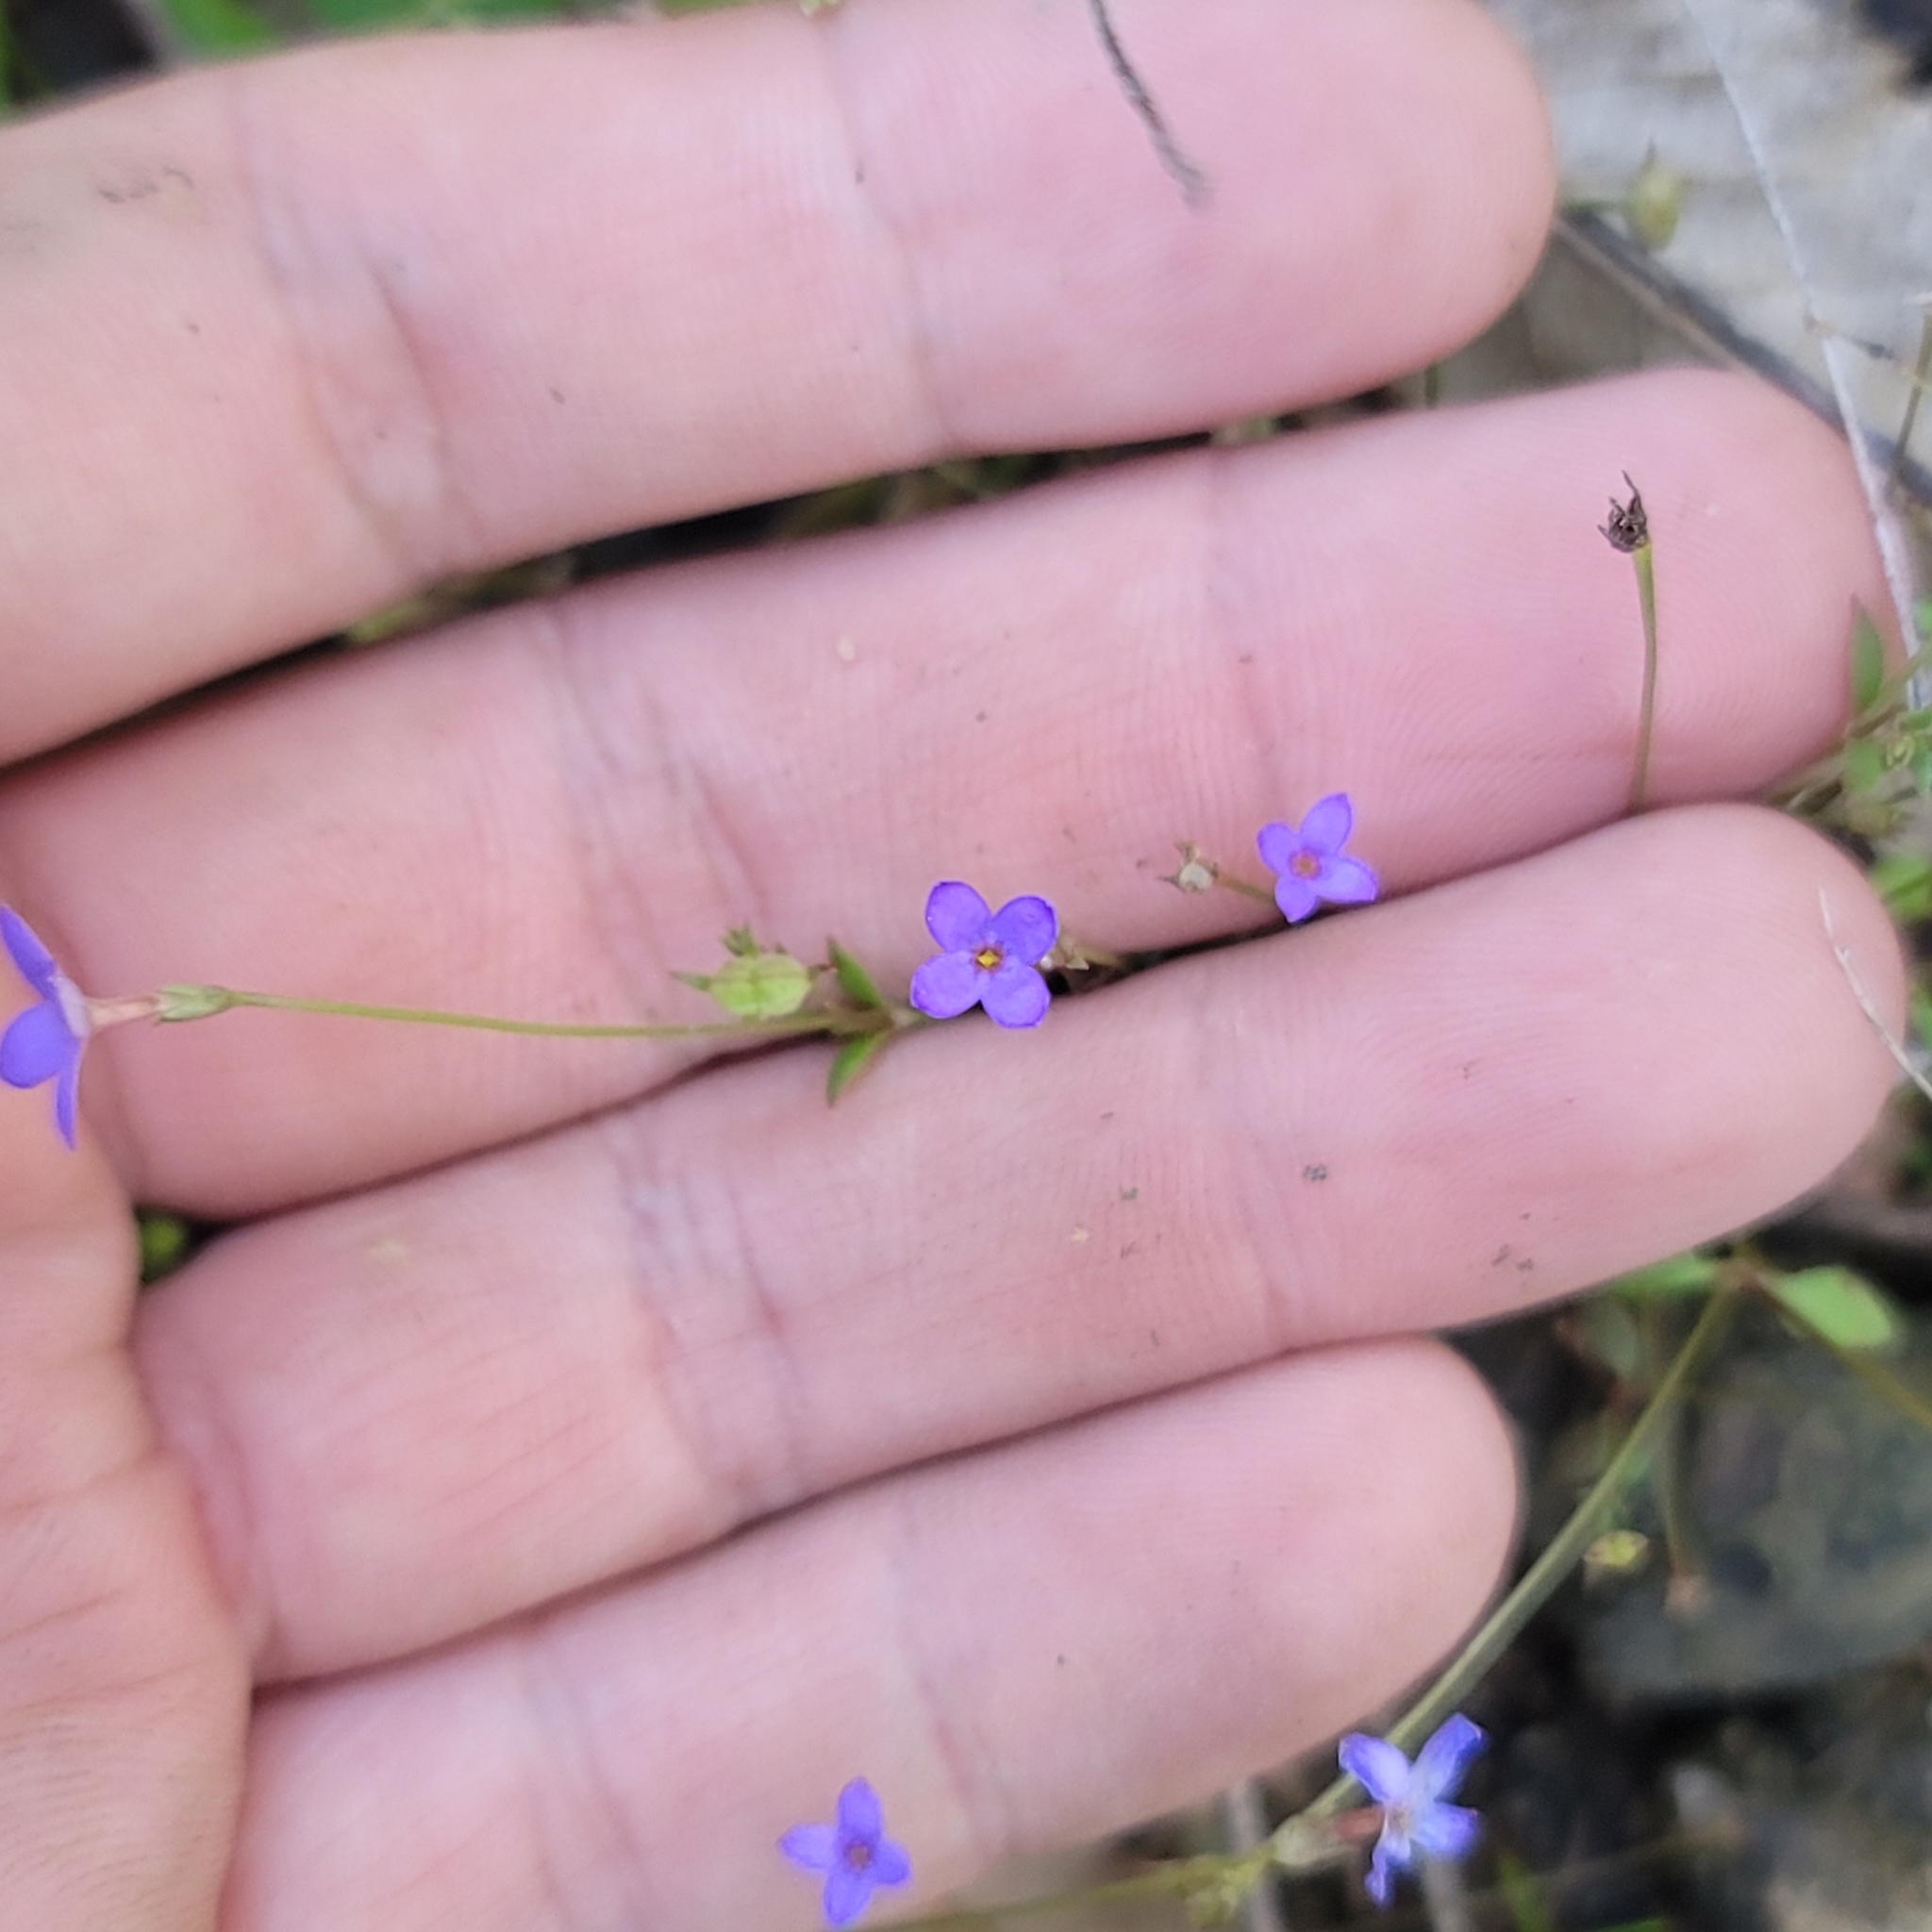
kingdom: Plantae
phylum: Tracheophyta
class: Magnoliopsida
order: Gentianales
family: Rubiaceae
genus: Houstonia
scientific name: Houstonia pusilla
